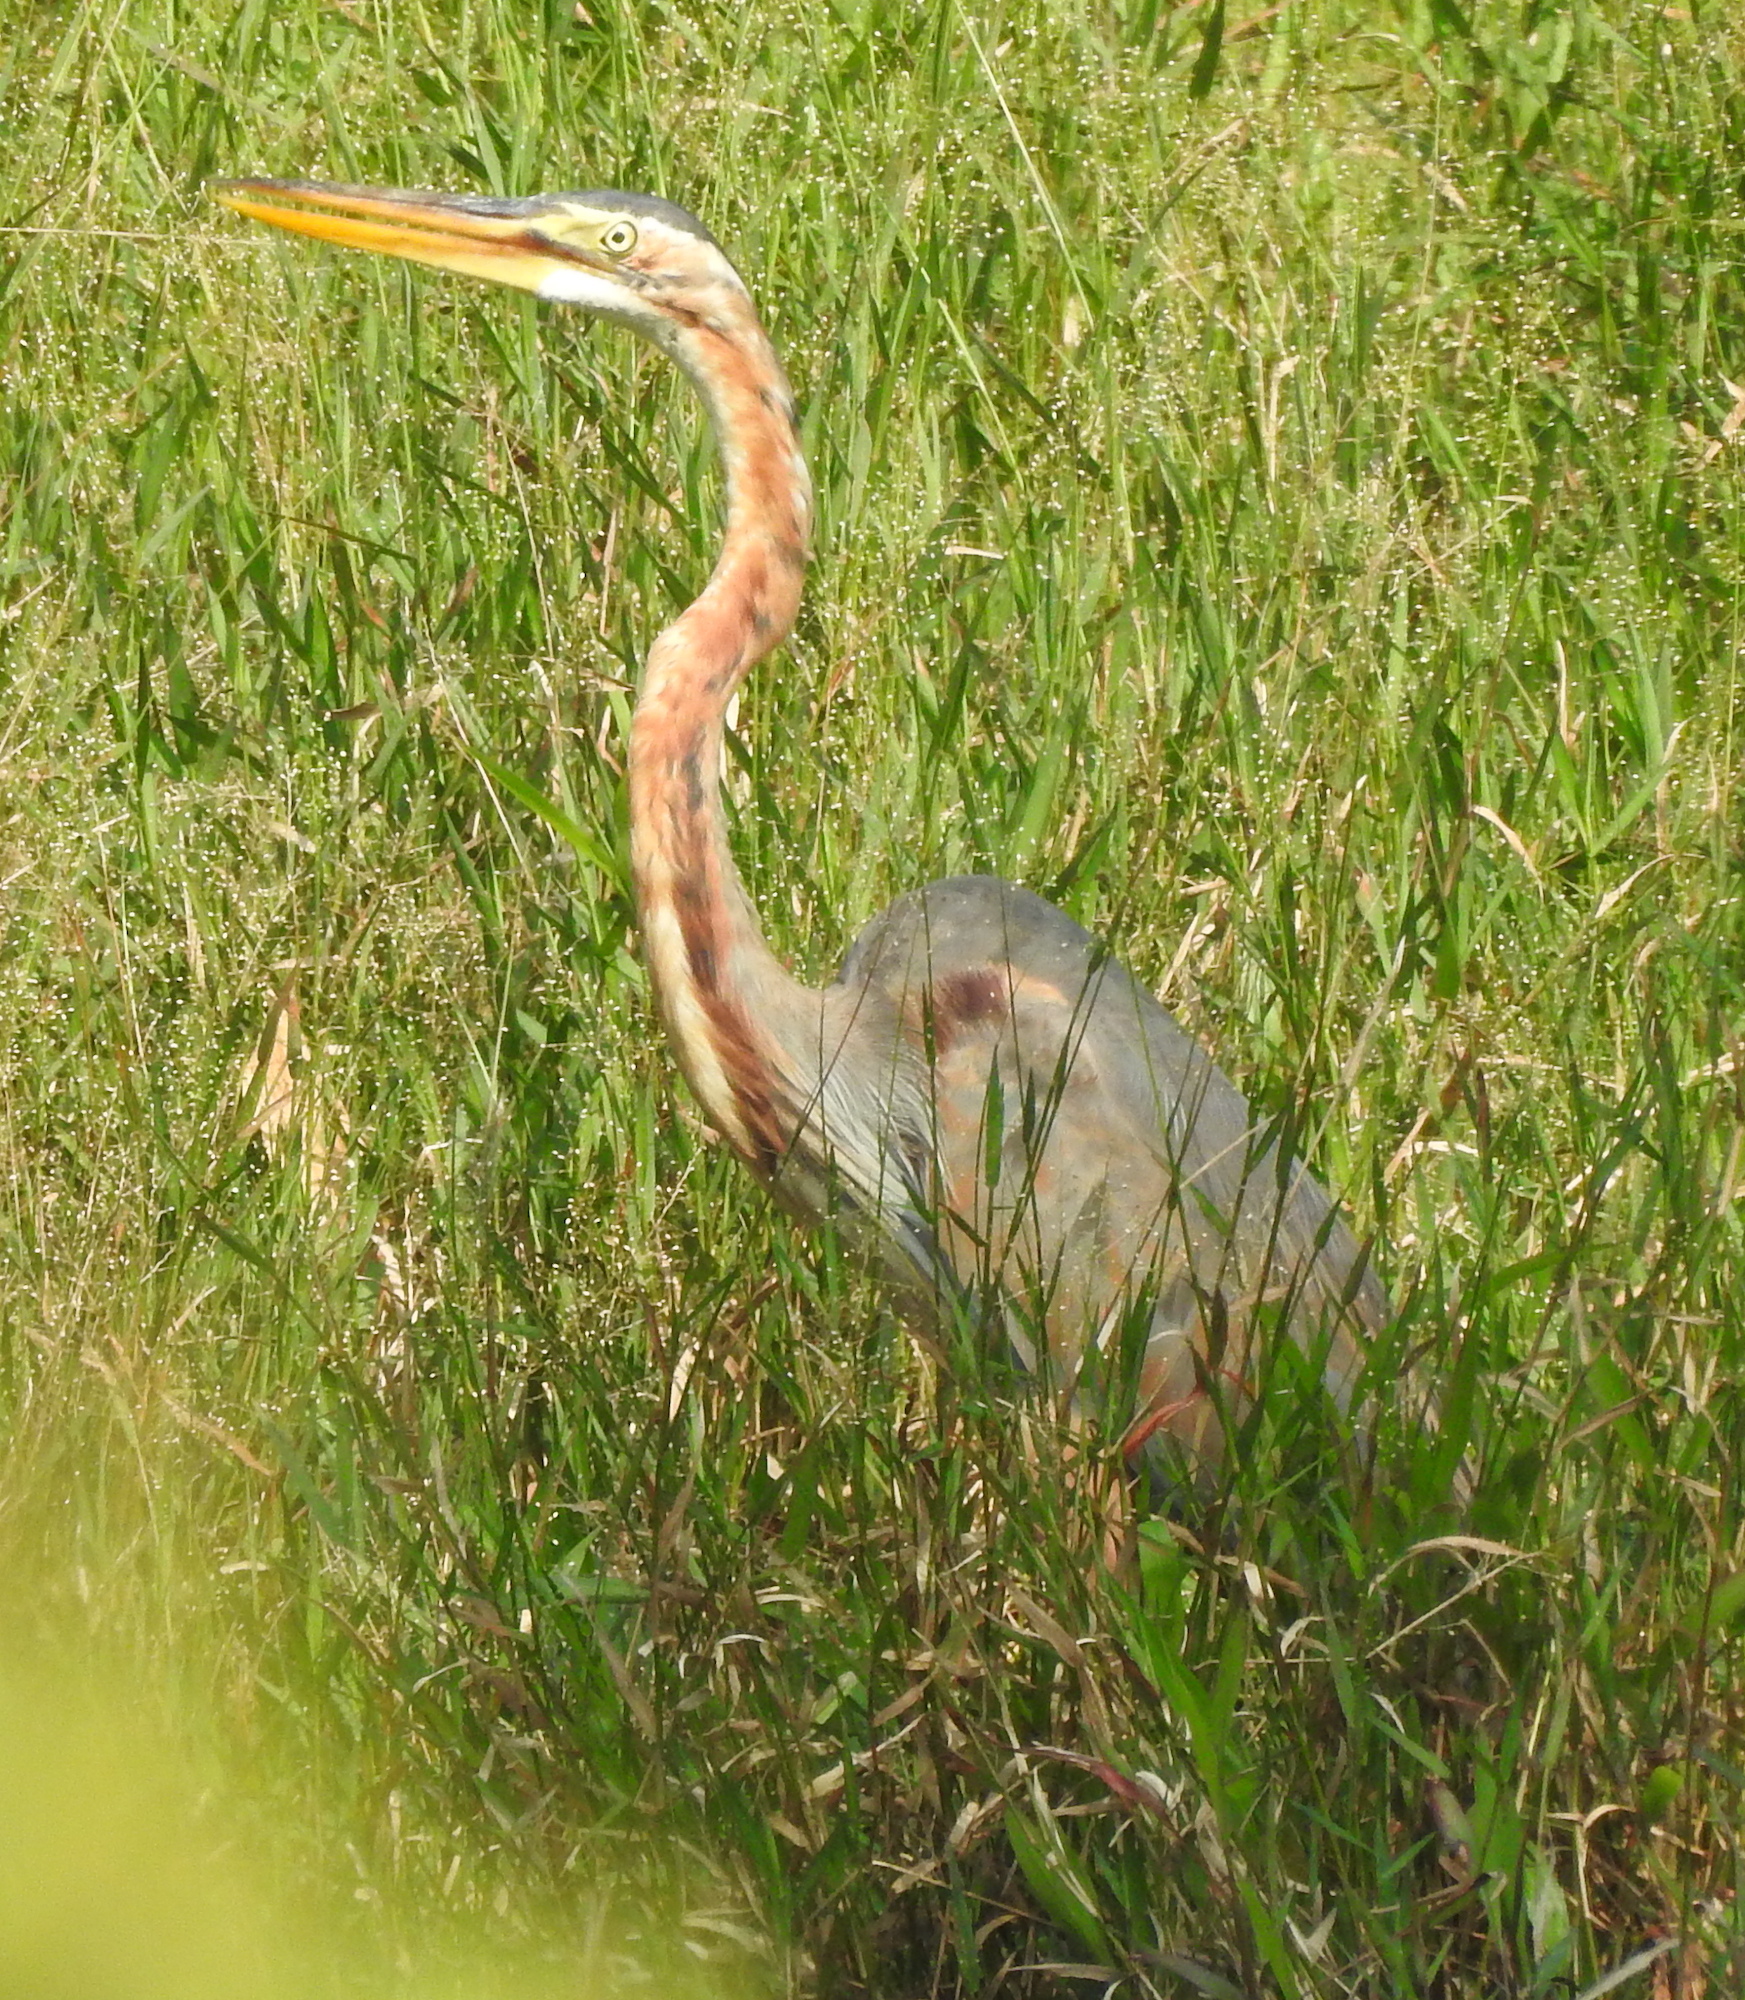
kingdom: Animalia
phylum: Chordata
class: Aves
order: Pelecaniformes
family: Ardeidae
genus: Ardea
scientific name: Ardea purpurea
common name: Purple heron
